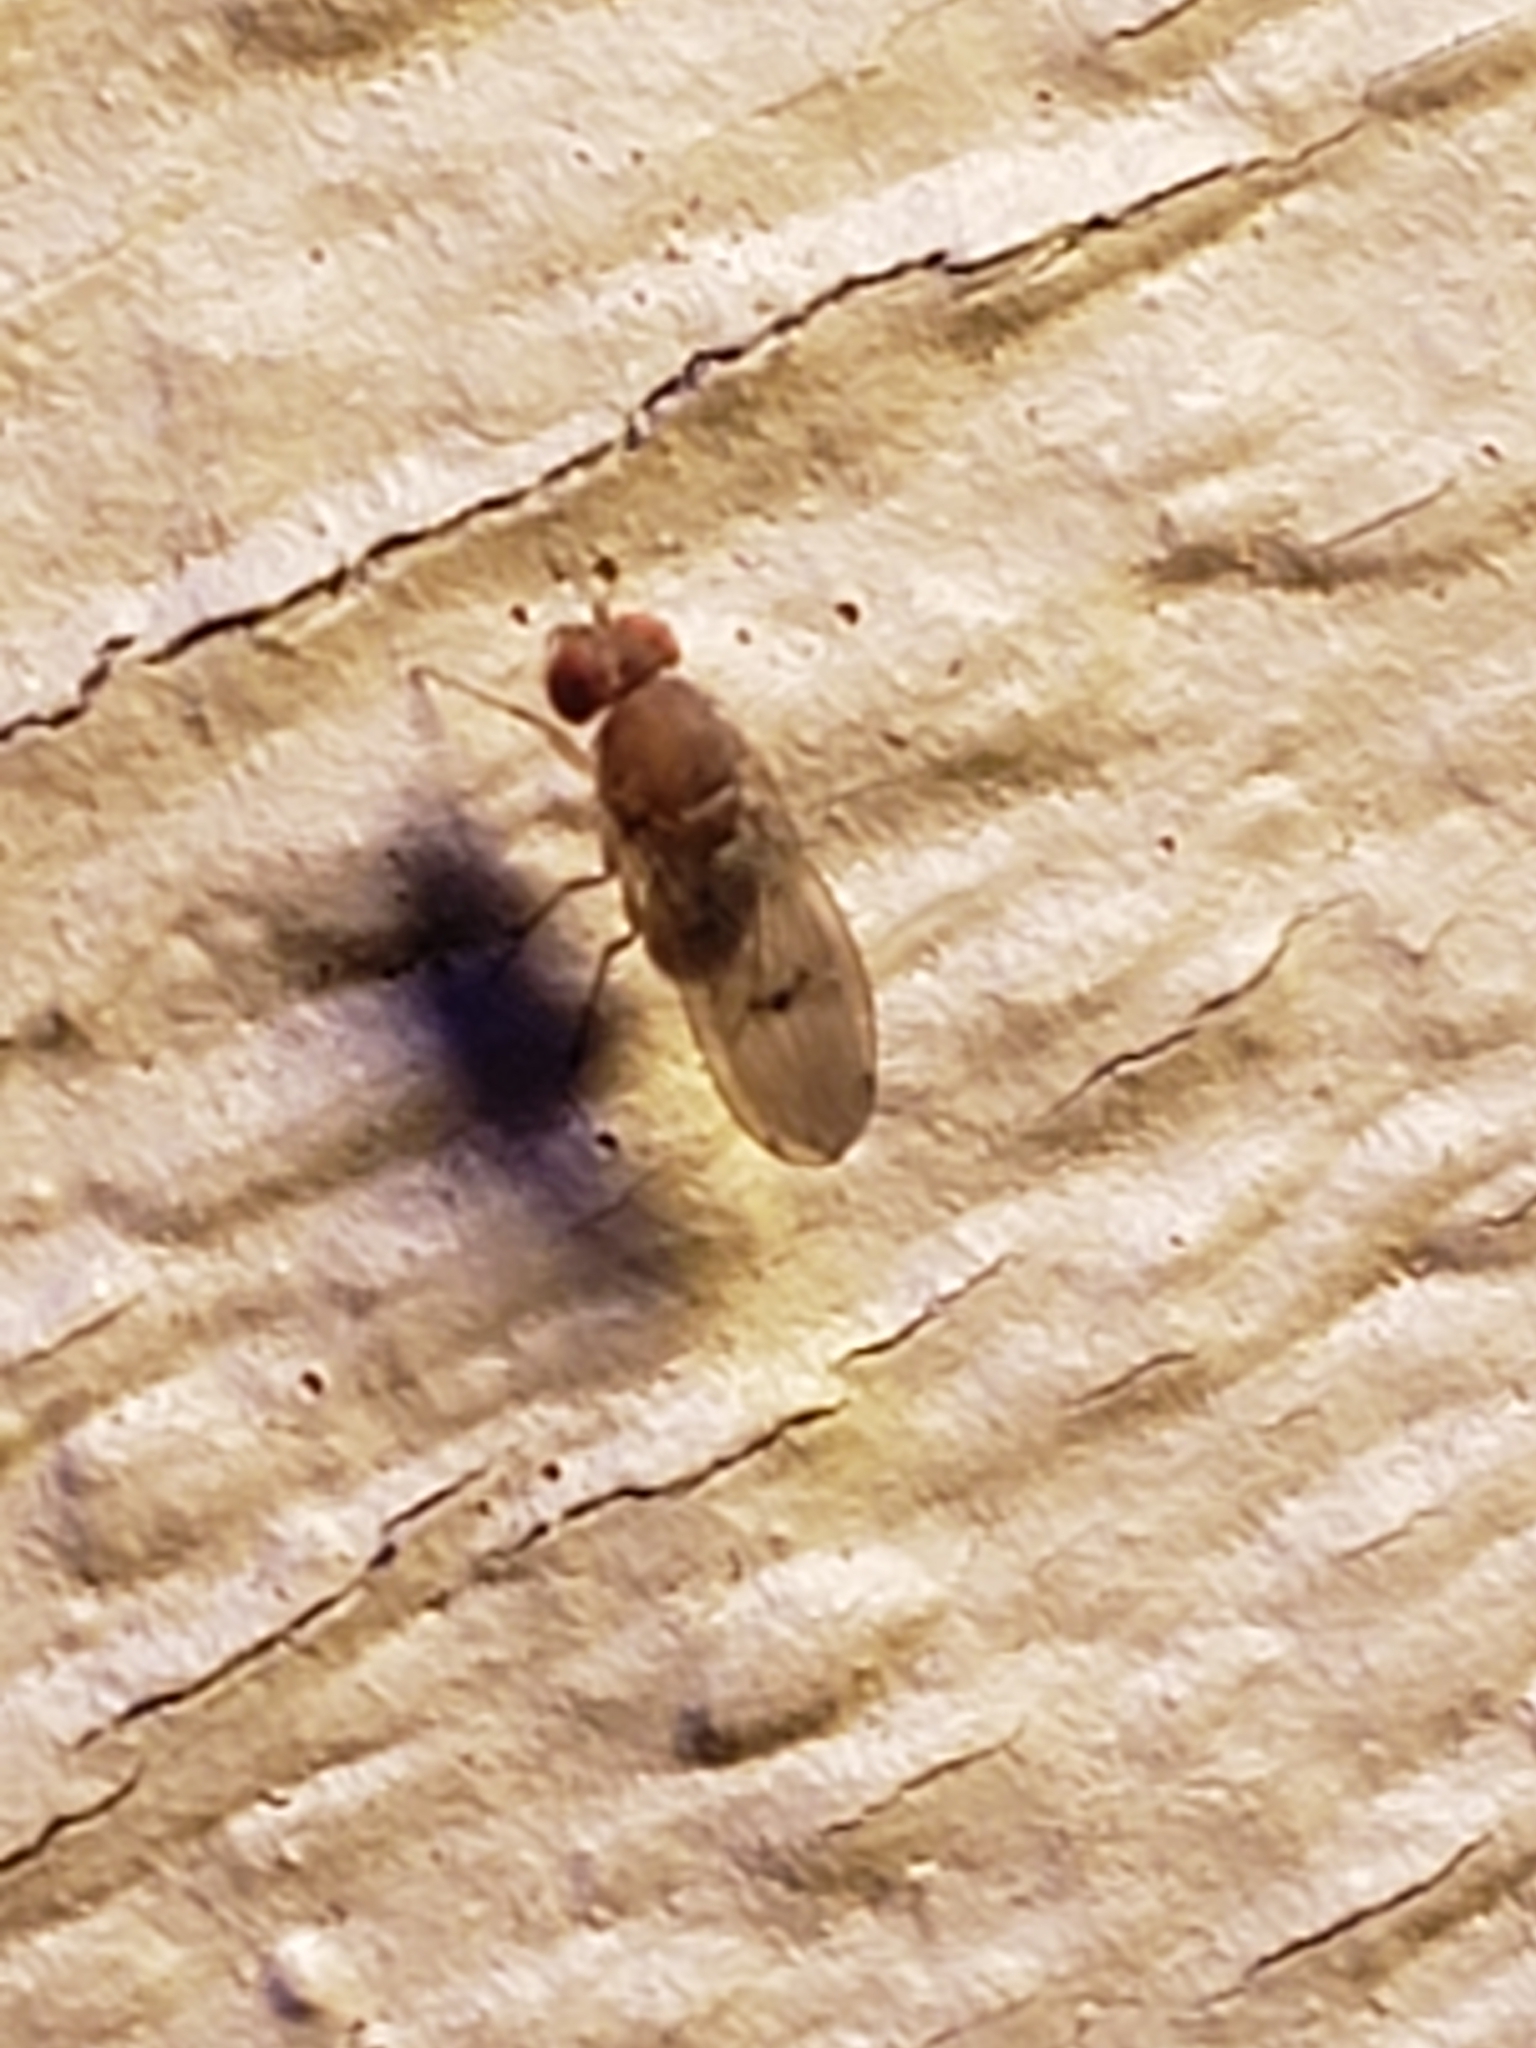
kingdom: Animalia
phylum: Arthropoda
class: Insecta
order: Diptera
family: Drosophilidae
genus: Drosophila
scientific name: Drosophila immigrans
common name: Pomace fly
